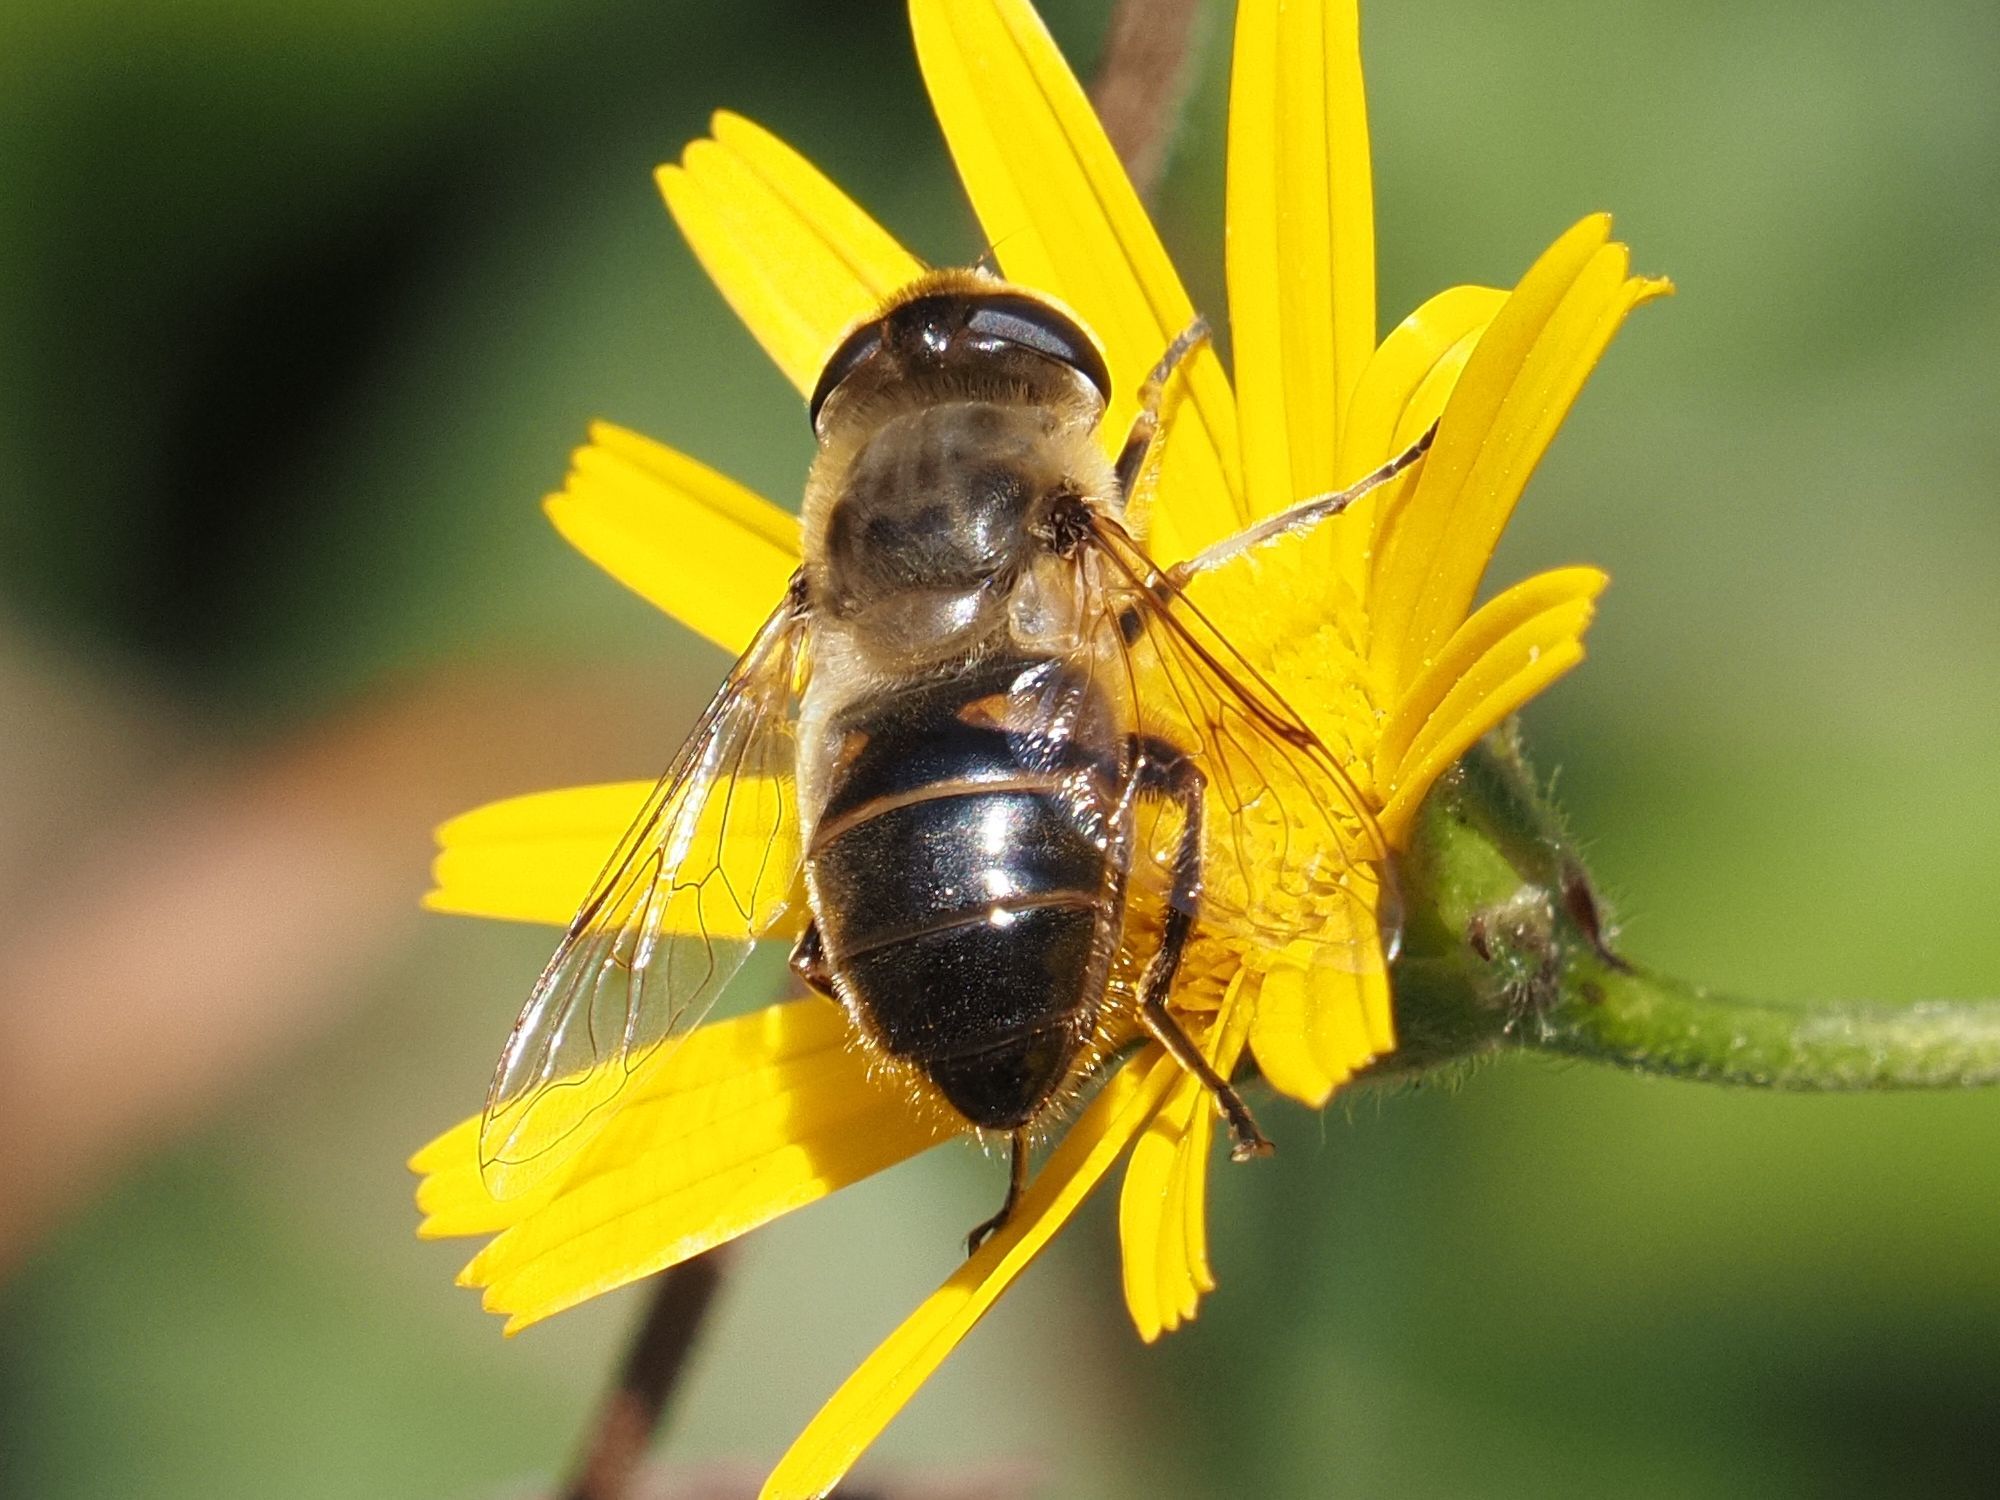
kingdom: Animalia
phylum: Arthropoda
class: Insecta
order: Diptera
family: Syrphidae
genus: Eristalis
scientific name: Eristalis tenax
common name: Drone fly
